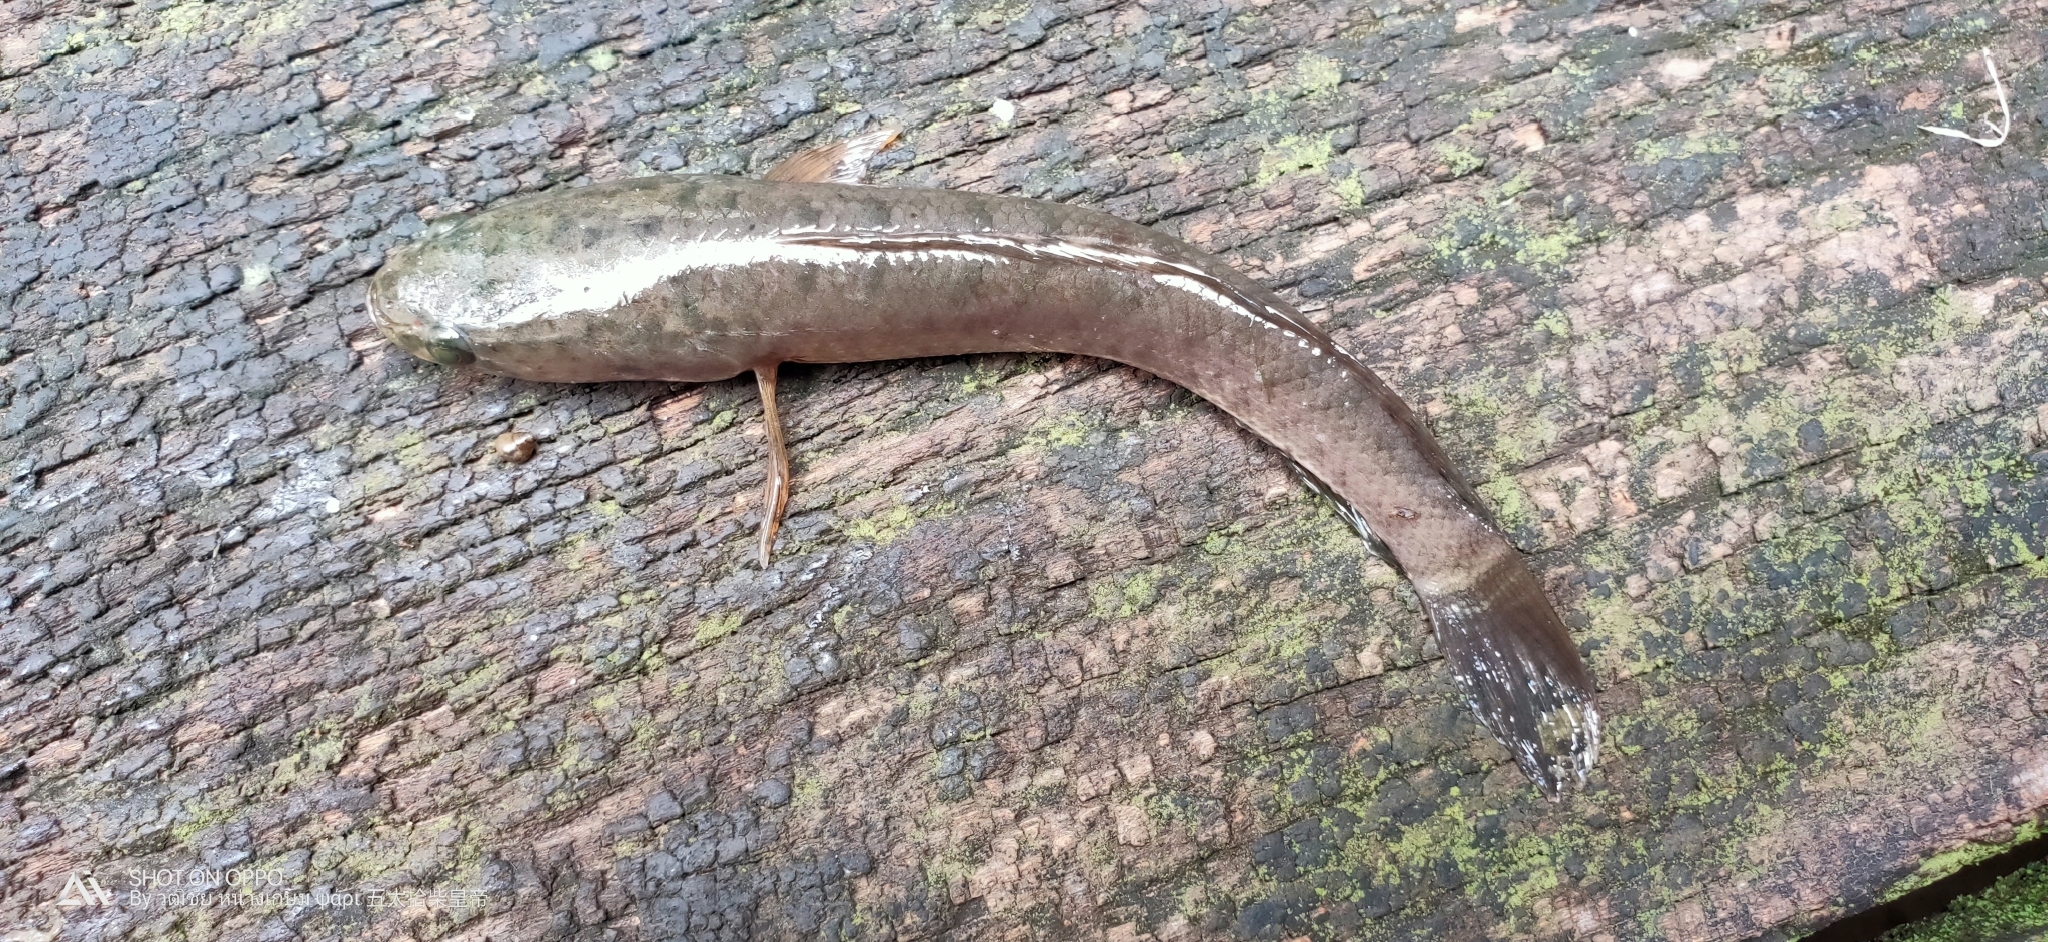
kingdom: Animalia
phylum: Chordata
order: Perciformes
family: Channidae
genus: Channa
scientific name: Channa striata
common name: Striped snakehead
